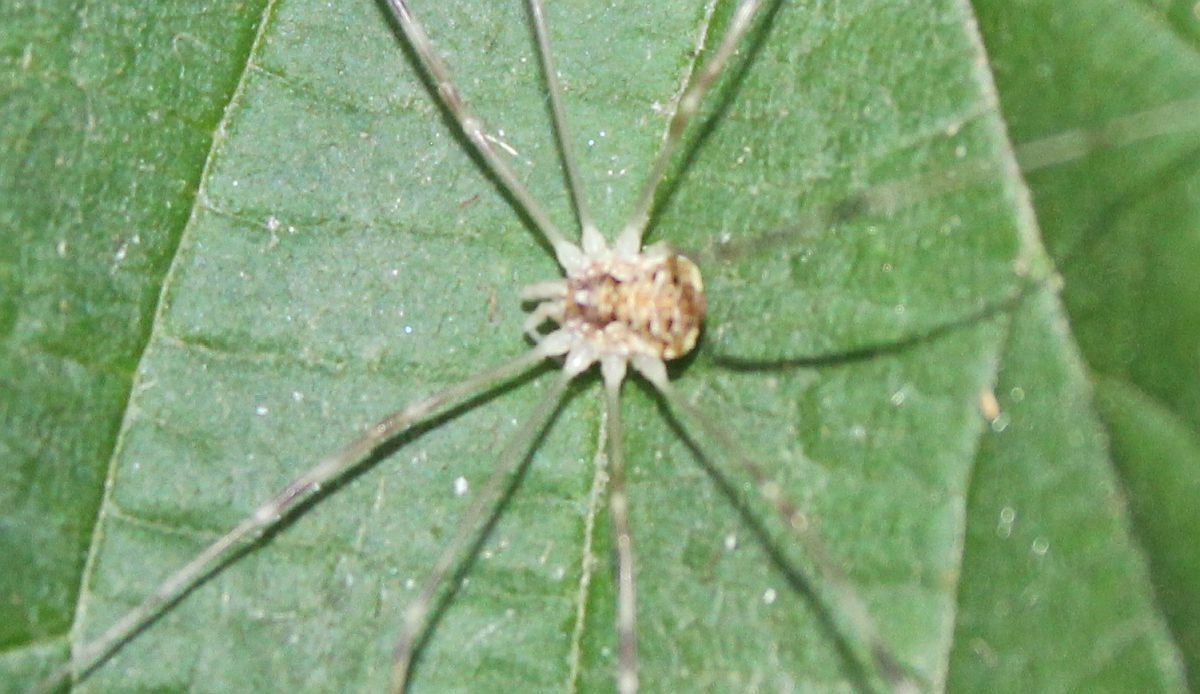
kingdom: Animalia
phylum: Arthropoda
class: Arachnida
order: Opiliones
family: Phalangiidae
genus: Opilio
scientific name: Opilio canestrinii
